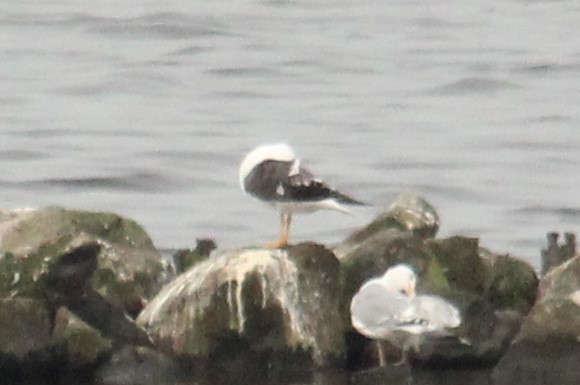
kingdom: Animalia
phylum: Chordata
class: Aves
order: Charadriiformes
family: Laridae
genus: Larus
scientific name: Larus fuscus
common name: Lesser black-backed gull
